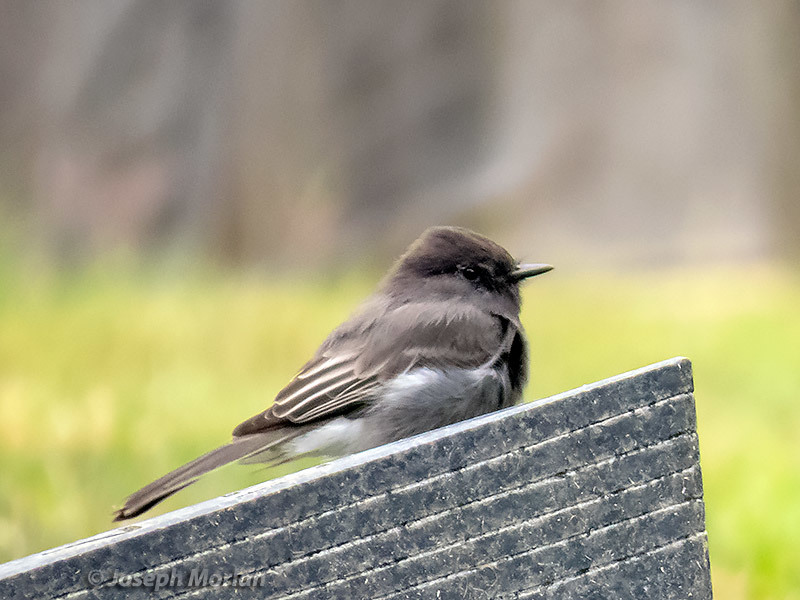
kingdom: Animalia
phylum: Chordata
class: Aves
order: Passeriformes
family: Tyrannidae
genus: Sayornis
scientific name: Sayornis nigricans
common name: Black phoebe
